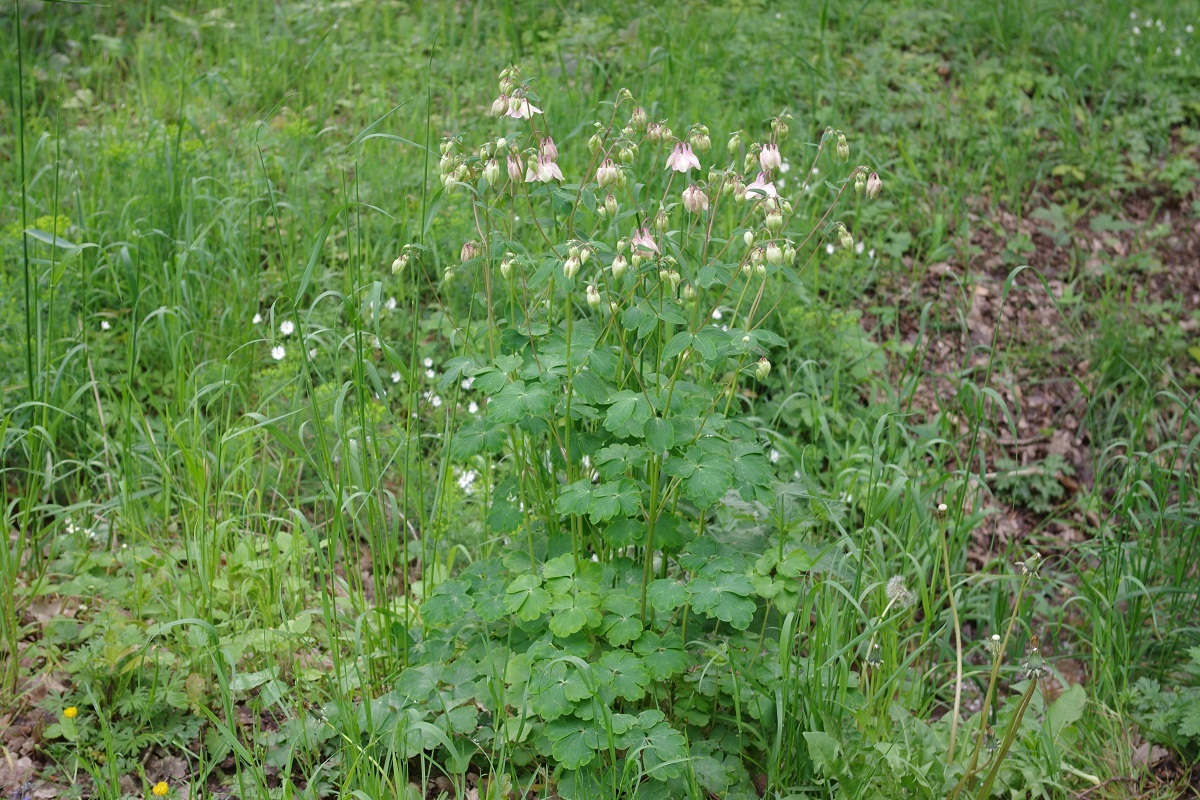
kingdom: Plantae
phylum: Tracheophyta
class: Magnoliopsida
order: Ranunculales
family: Ranunculaceae
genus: Aquilegia
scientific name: Aquilegia vulgaris
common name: Columbine
